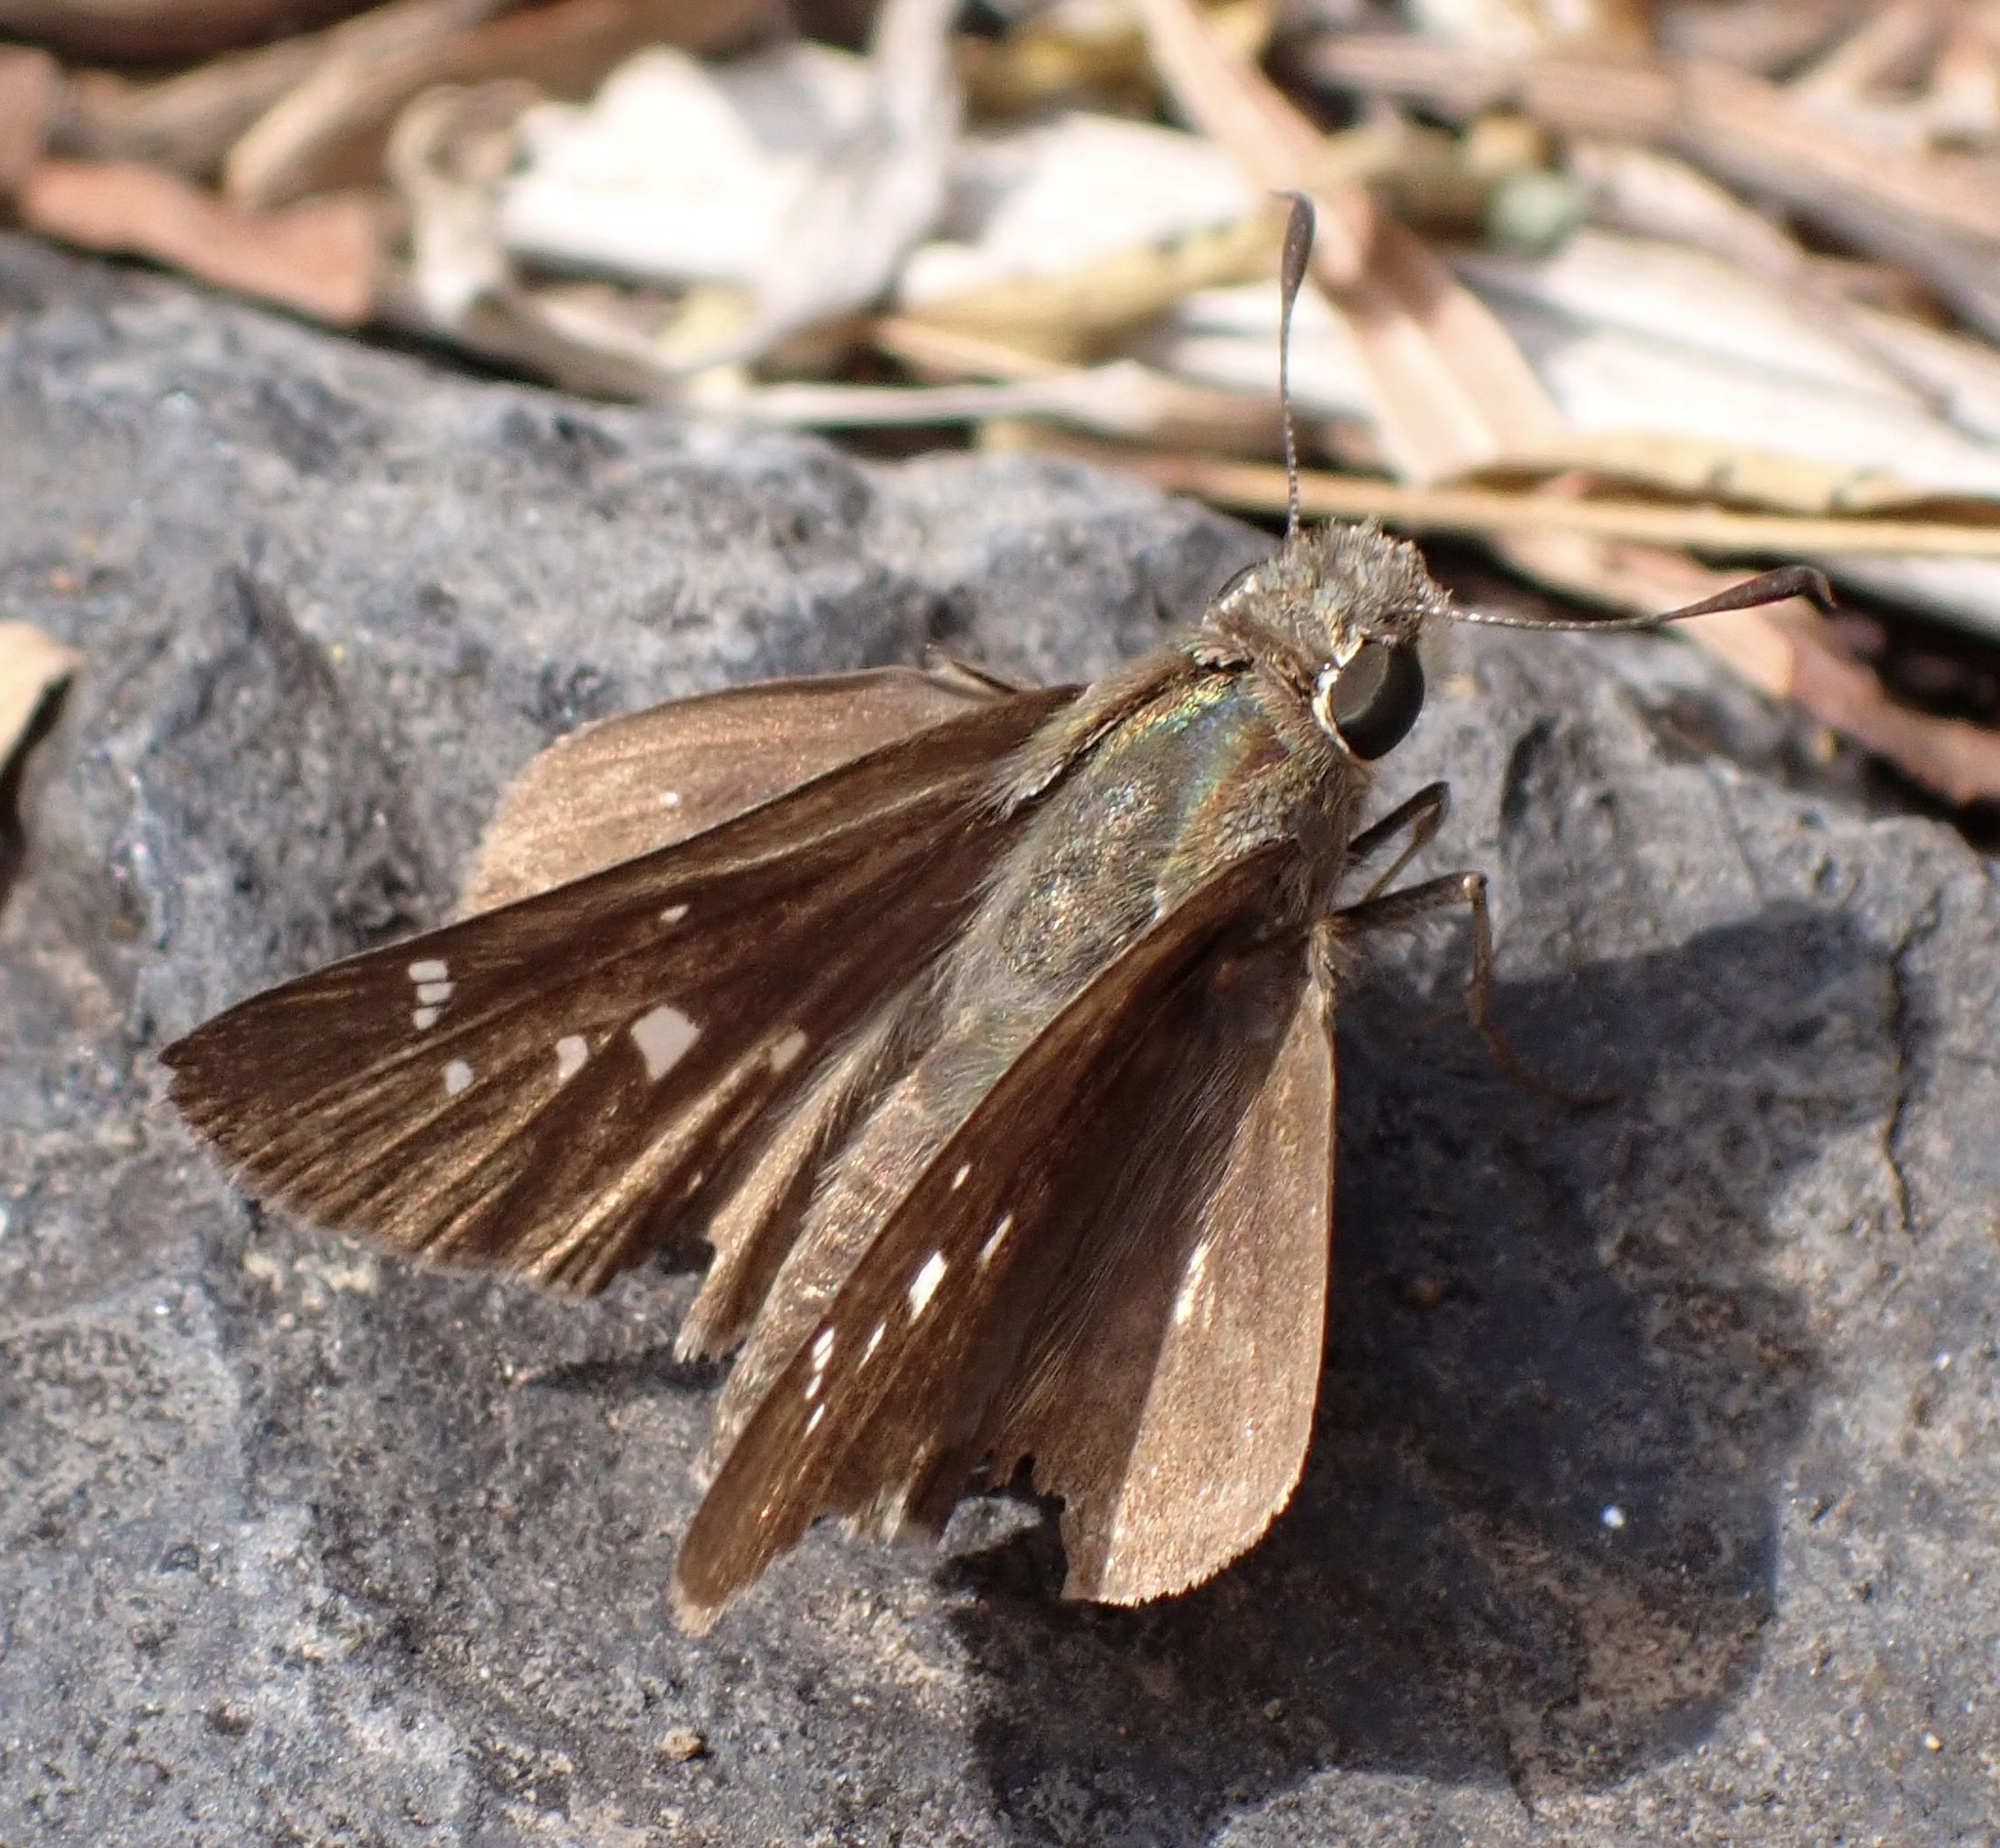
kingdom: Animalia
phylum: Arthropoda
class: Insecta
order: Lepidoptera
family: Hesperiidae
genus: Borbo
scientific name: Borbo borbonica
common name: Olive-haired swift
